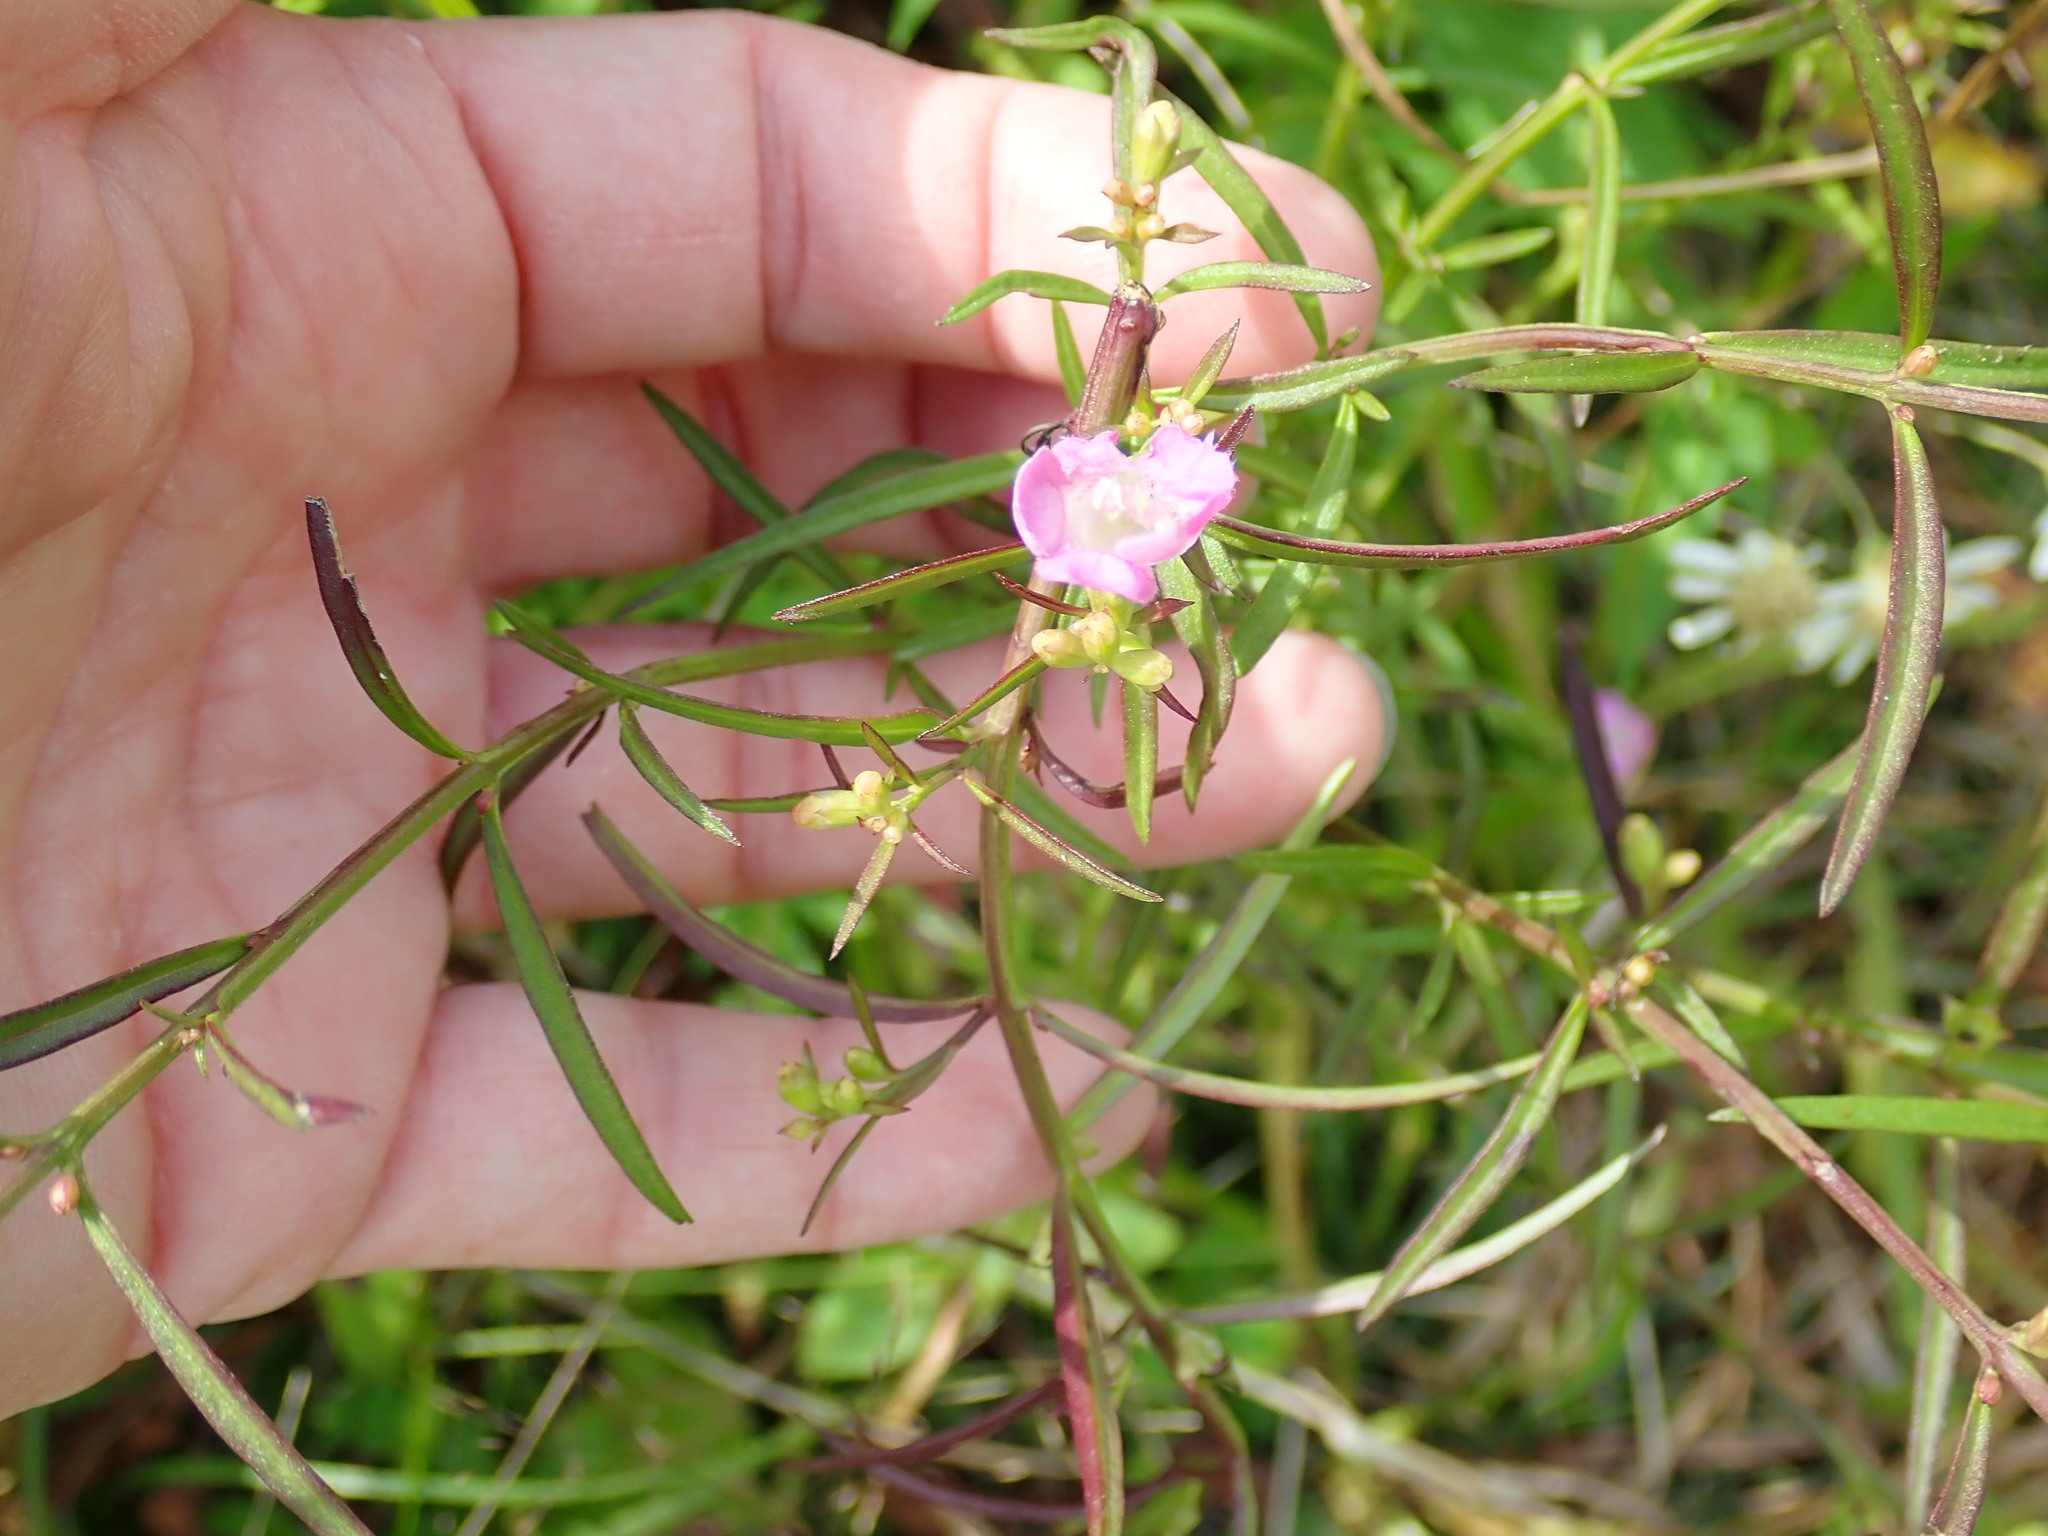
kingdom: Plantae
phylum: Tracheophyta
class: Magnoliopsida
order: Lamiales
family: Orobanchaceae
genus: Agalinis
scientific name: Agalinis
